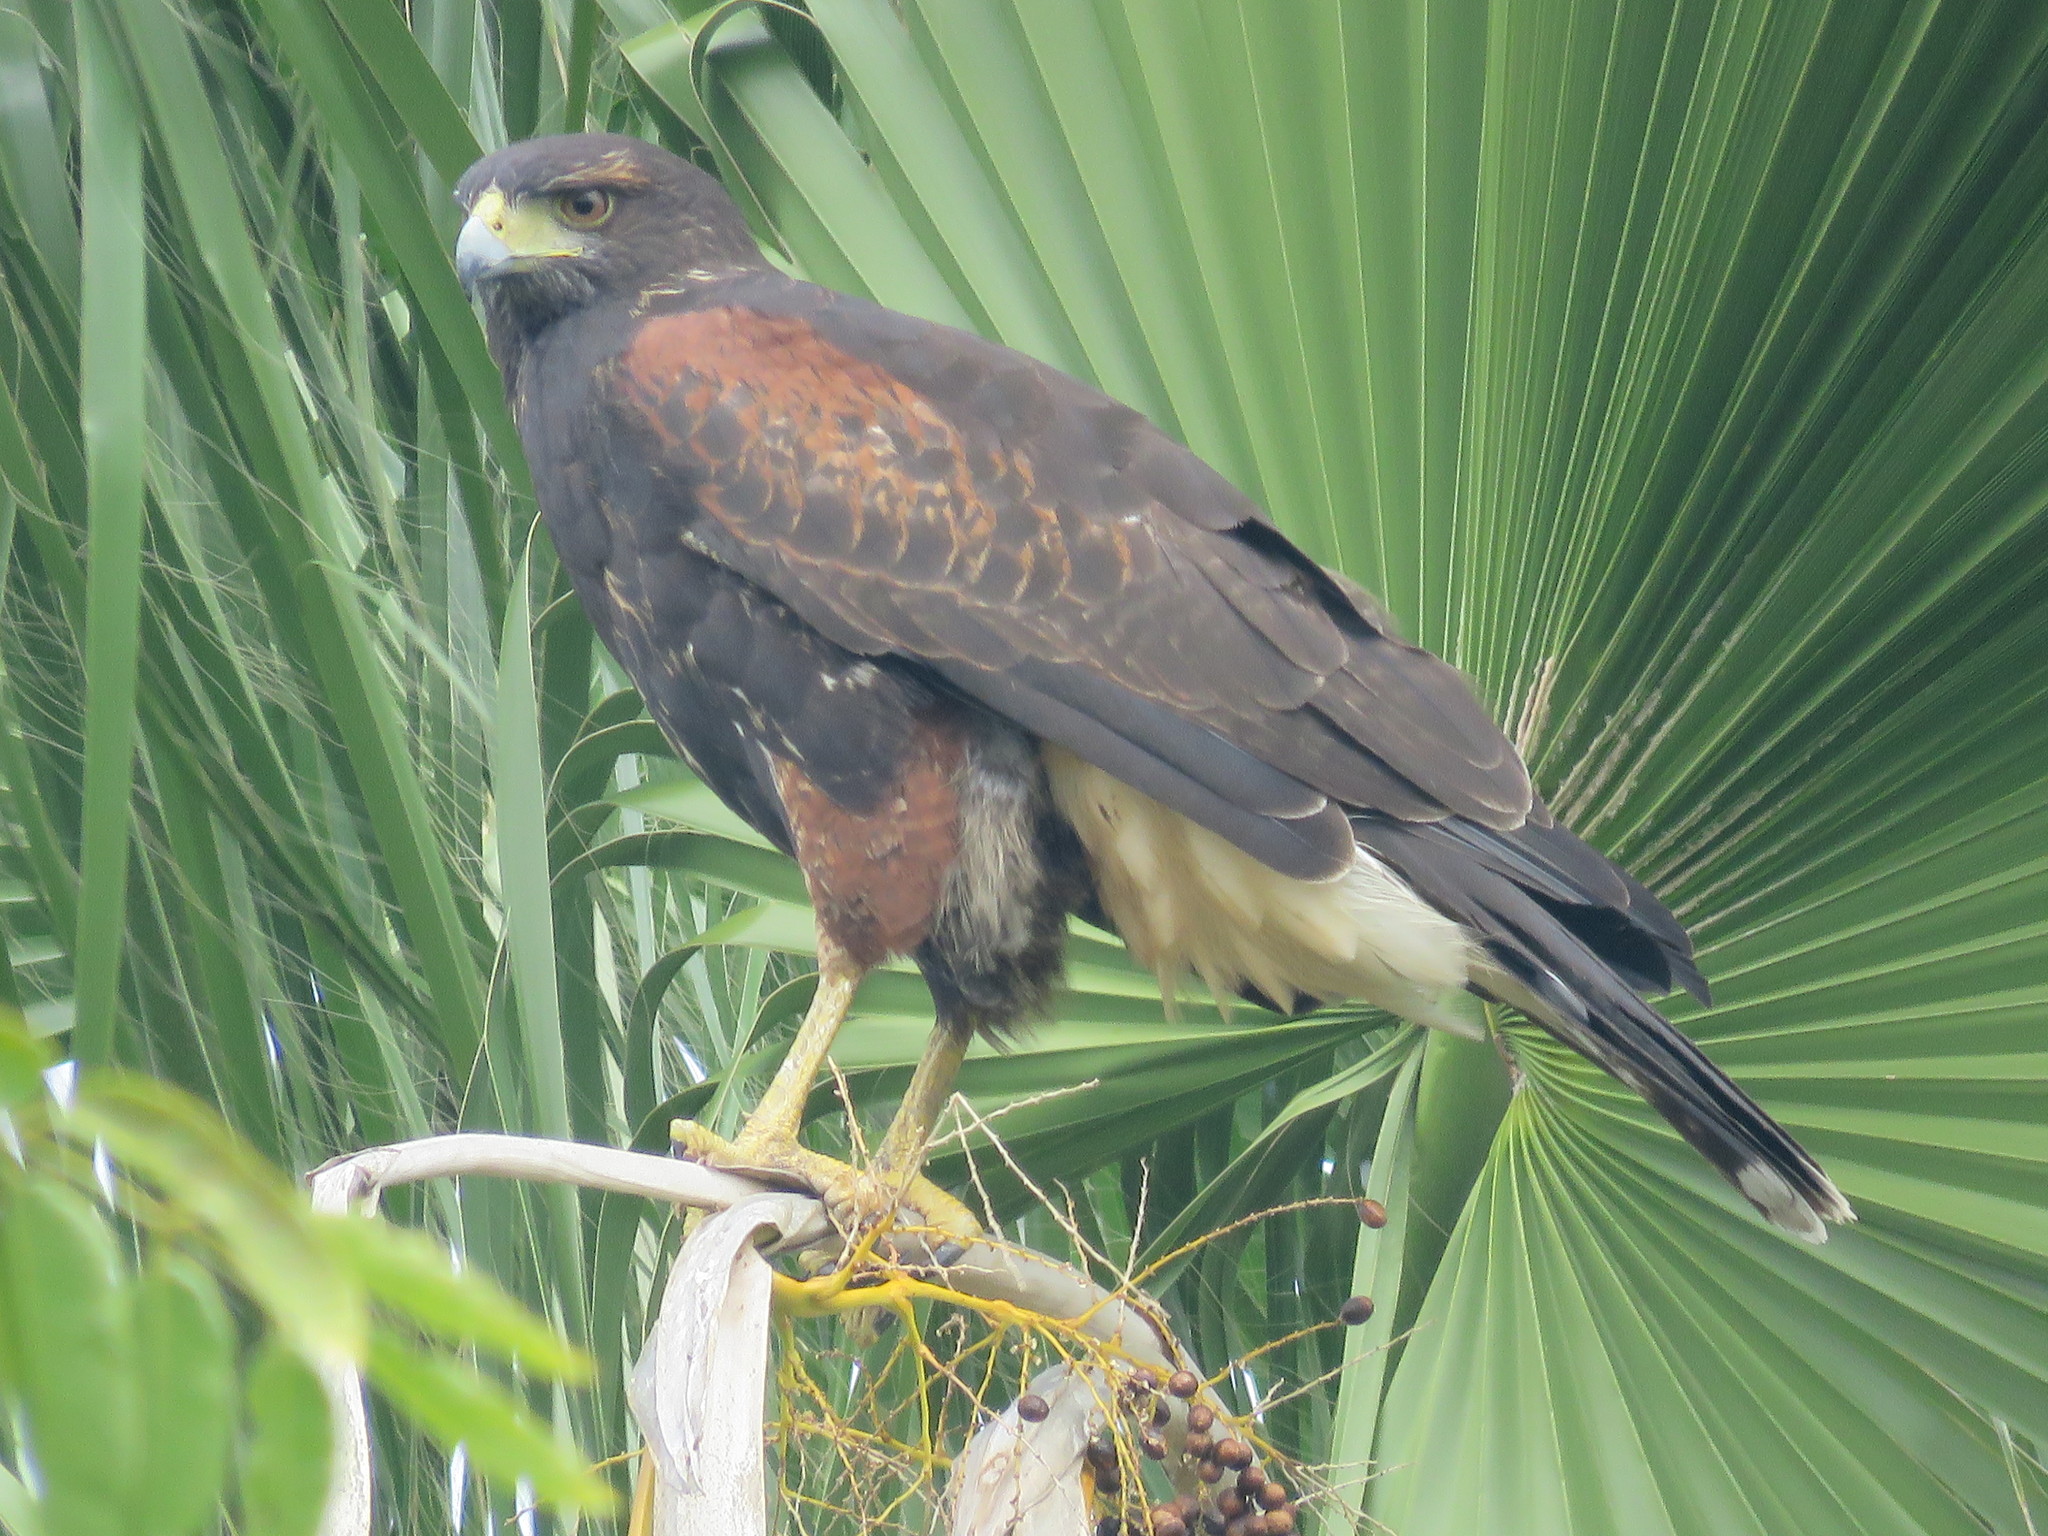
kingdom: Animalia
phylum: Chordata
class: Aves
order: Accipitriformes
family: Accipitridae
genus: Parabuteo
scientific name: Parabuteo unicinctus
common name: Harris's hawk
